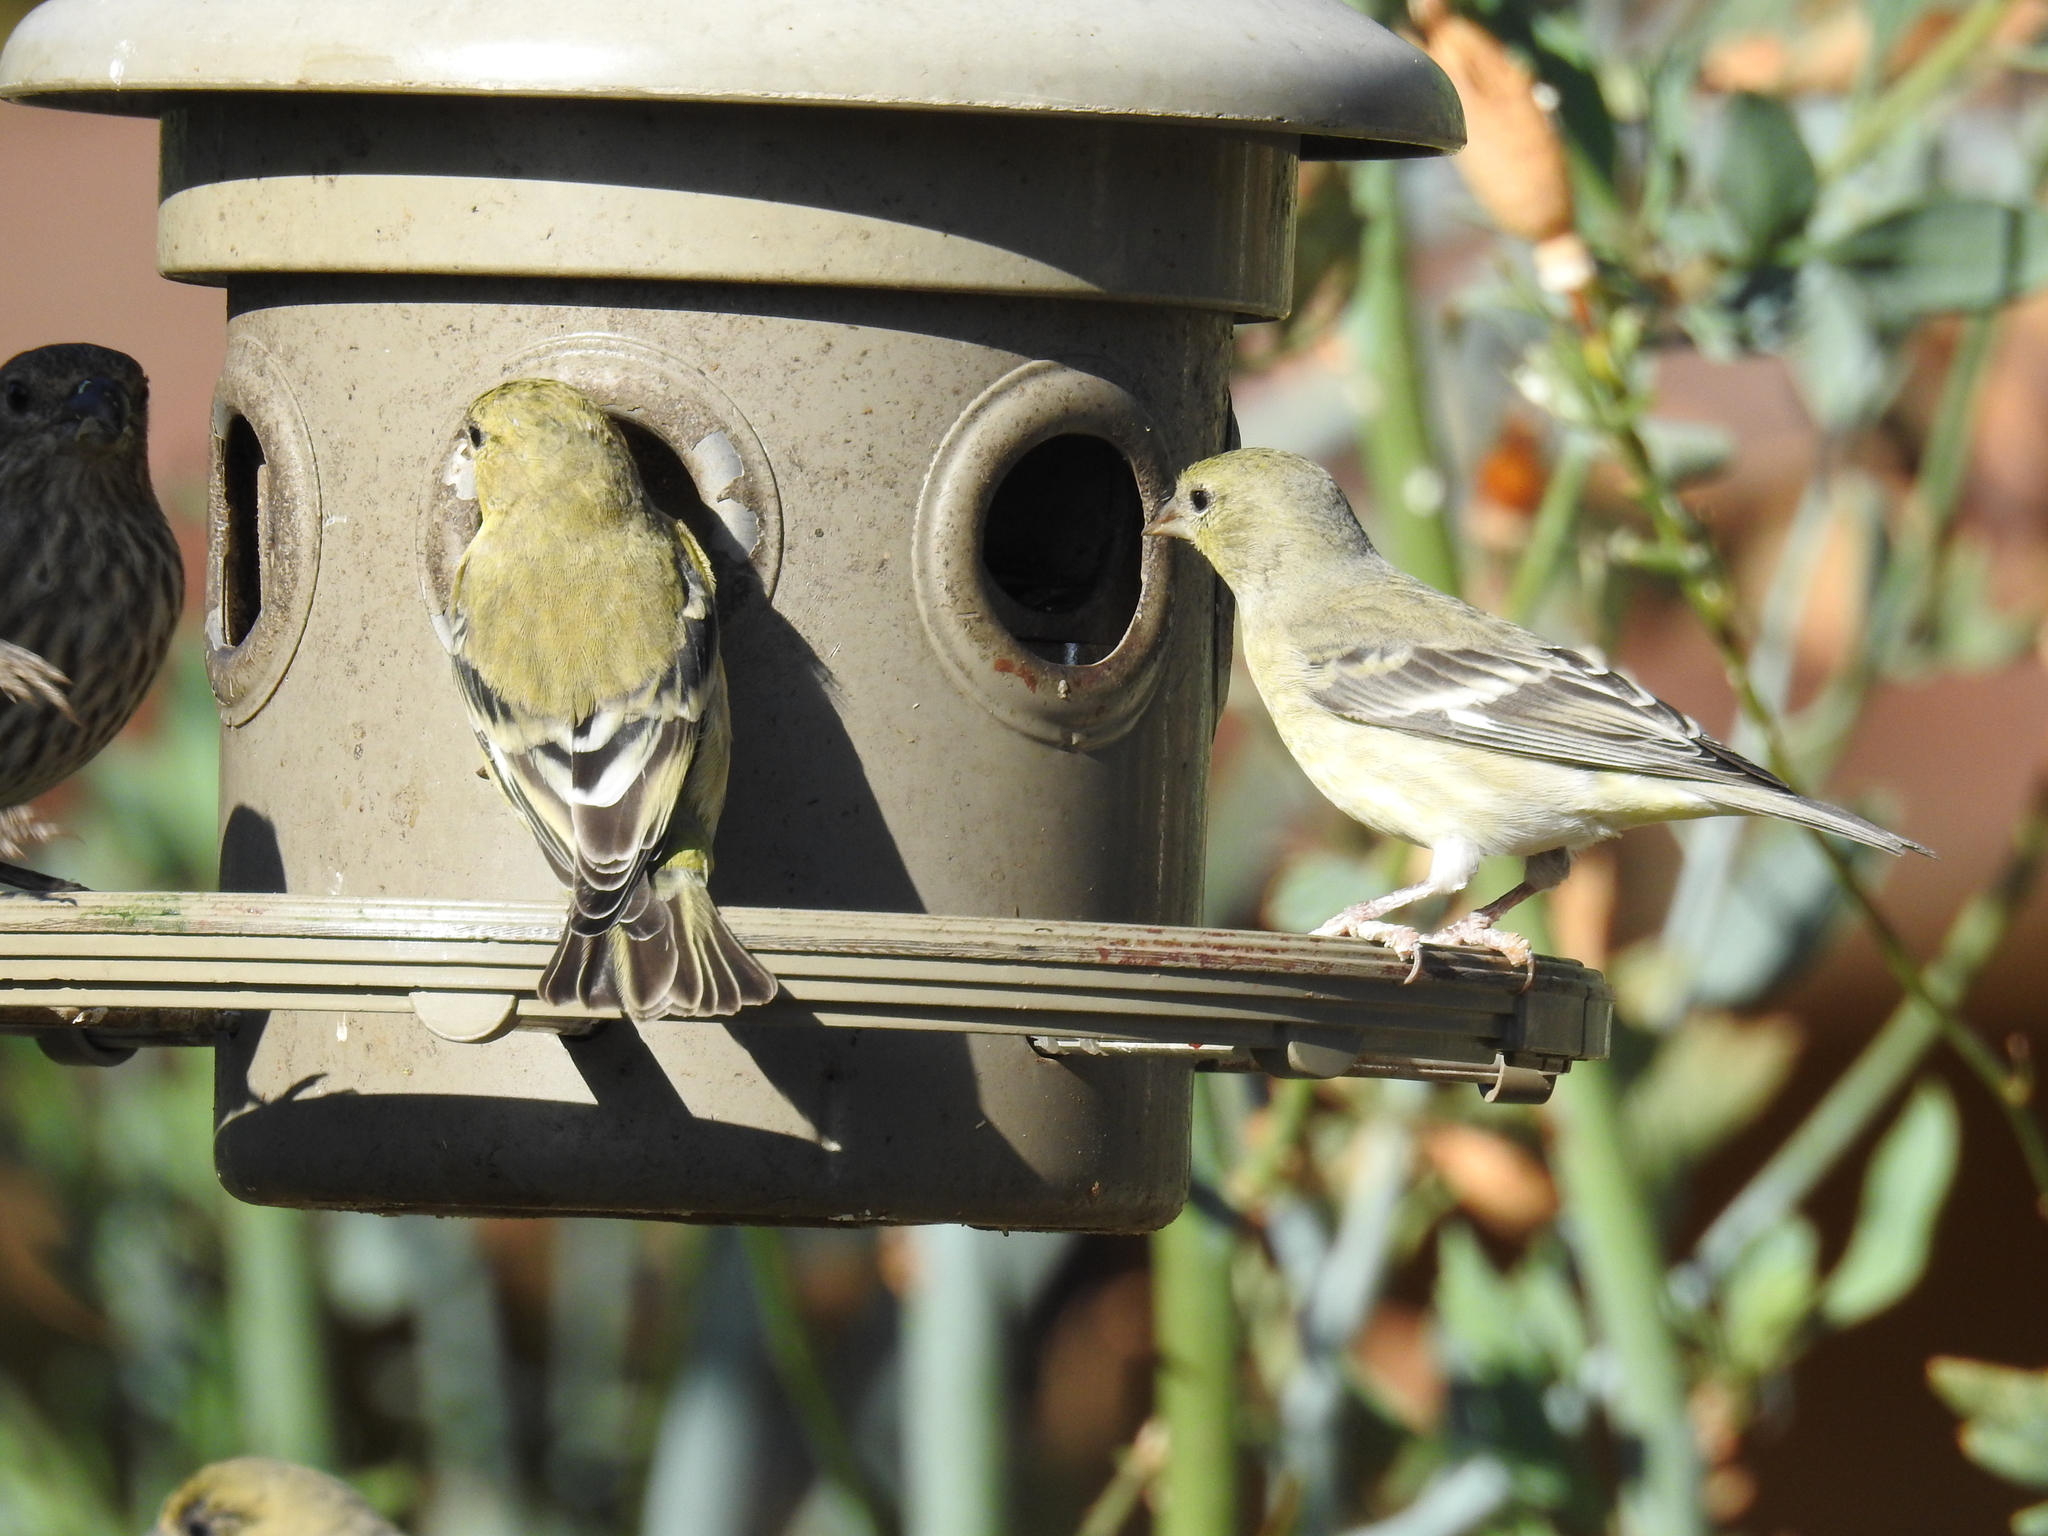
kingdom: Animalia
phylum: Chordata
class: Aves
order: Passeriformes
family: Fringillidae
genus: Spinus
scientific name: Spinus psaltria
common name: Lesser goldfinch
